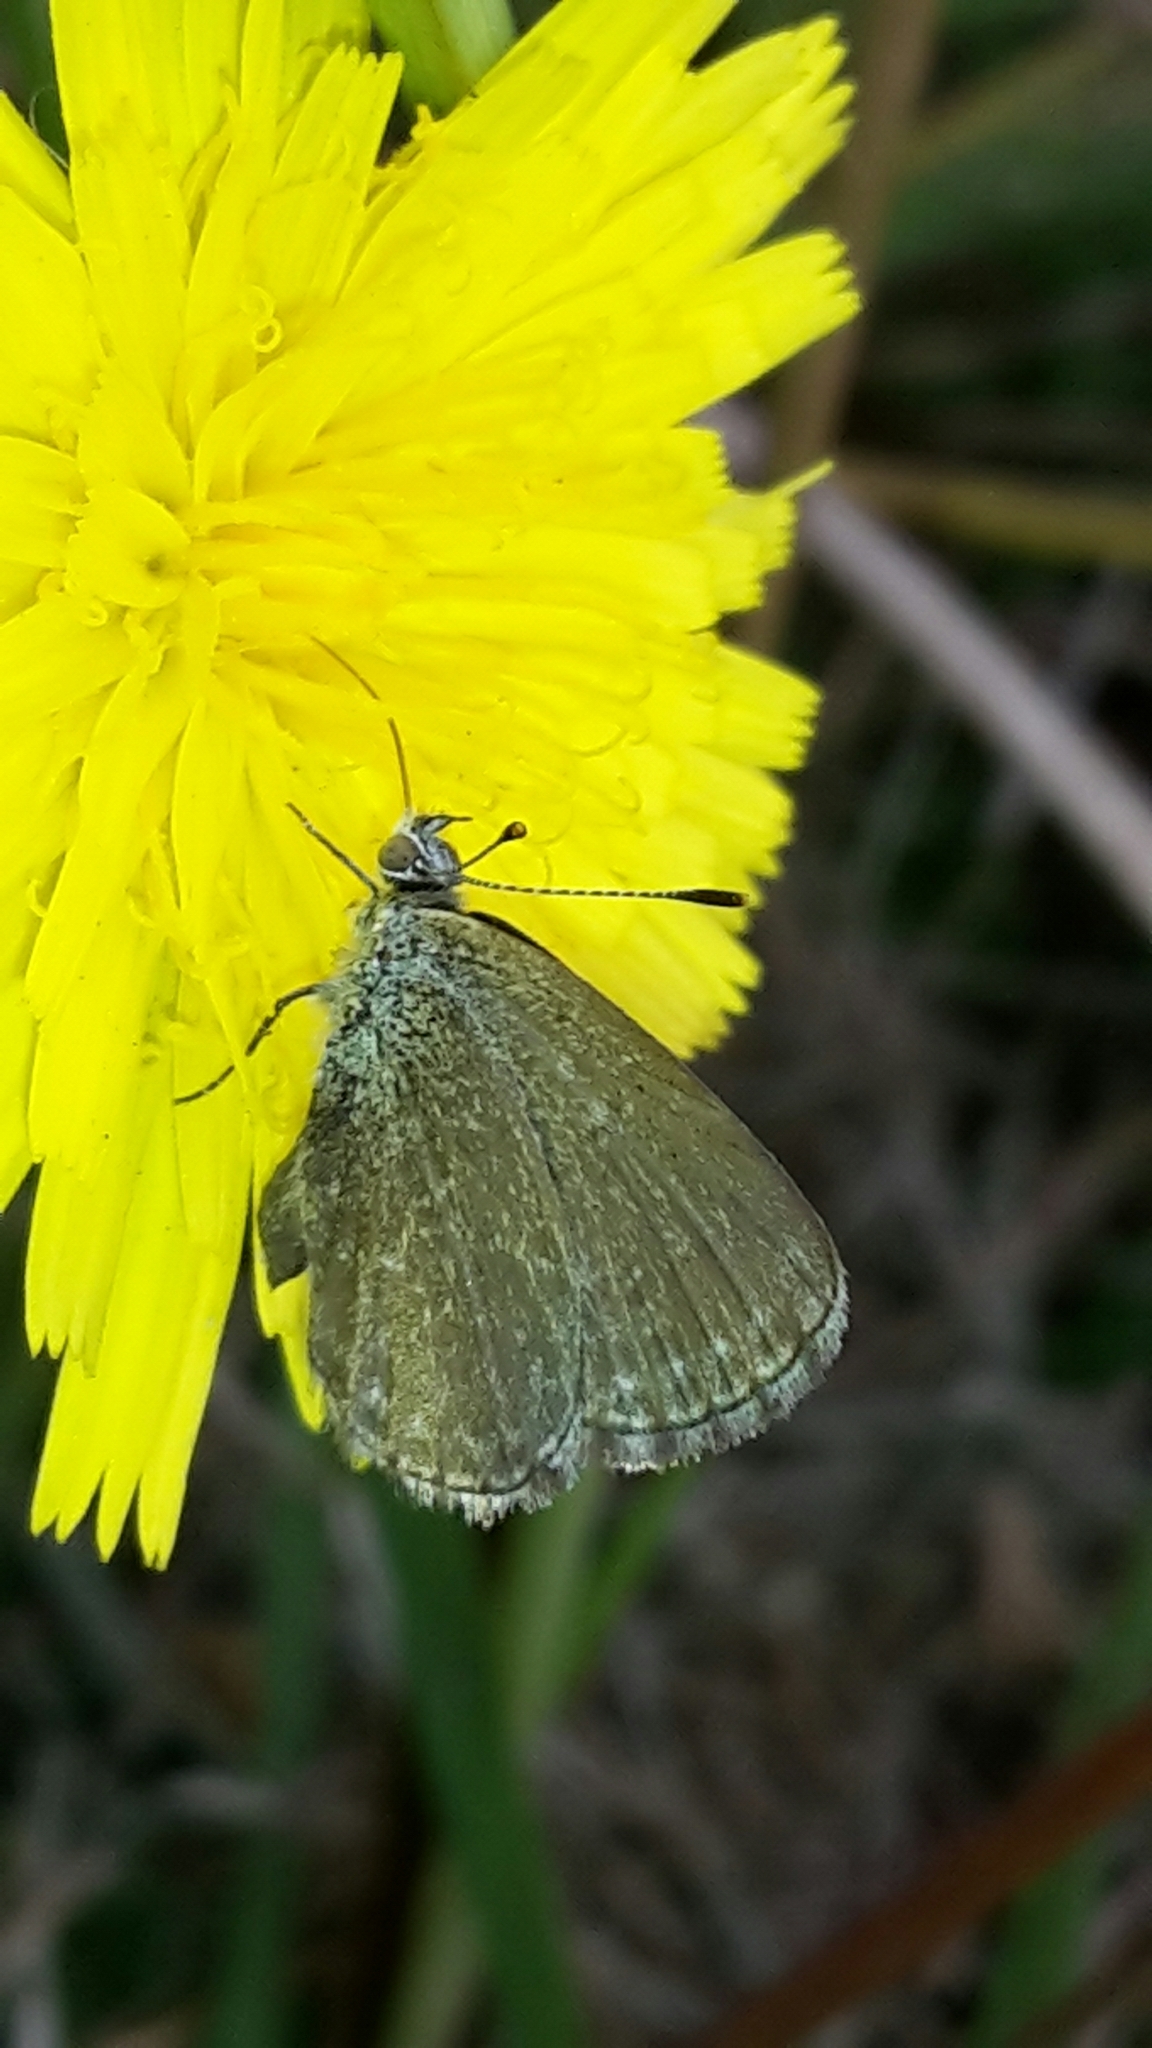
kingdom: Animalia
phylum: Arthropoda
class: Insecta
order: Lepidoptera
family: Lycaenidae
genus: Zizina
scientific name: Zizina labradus
